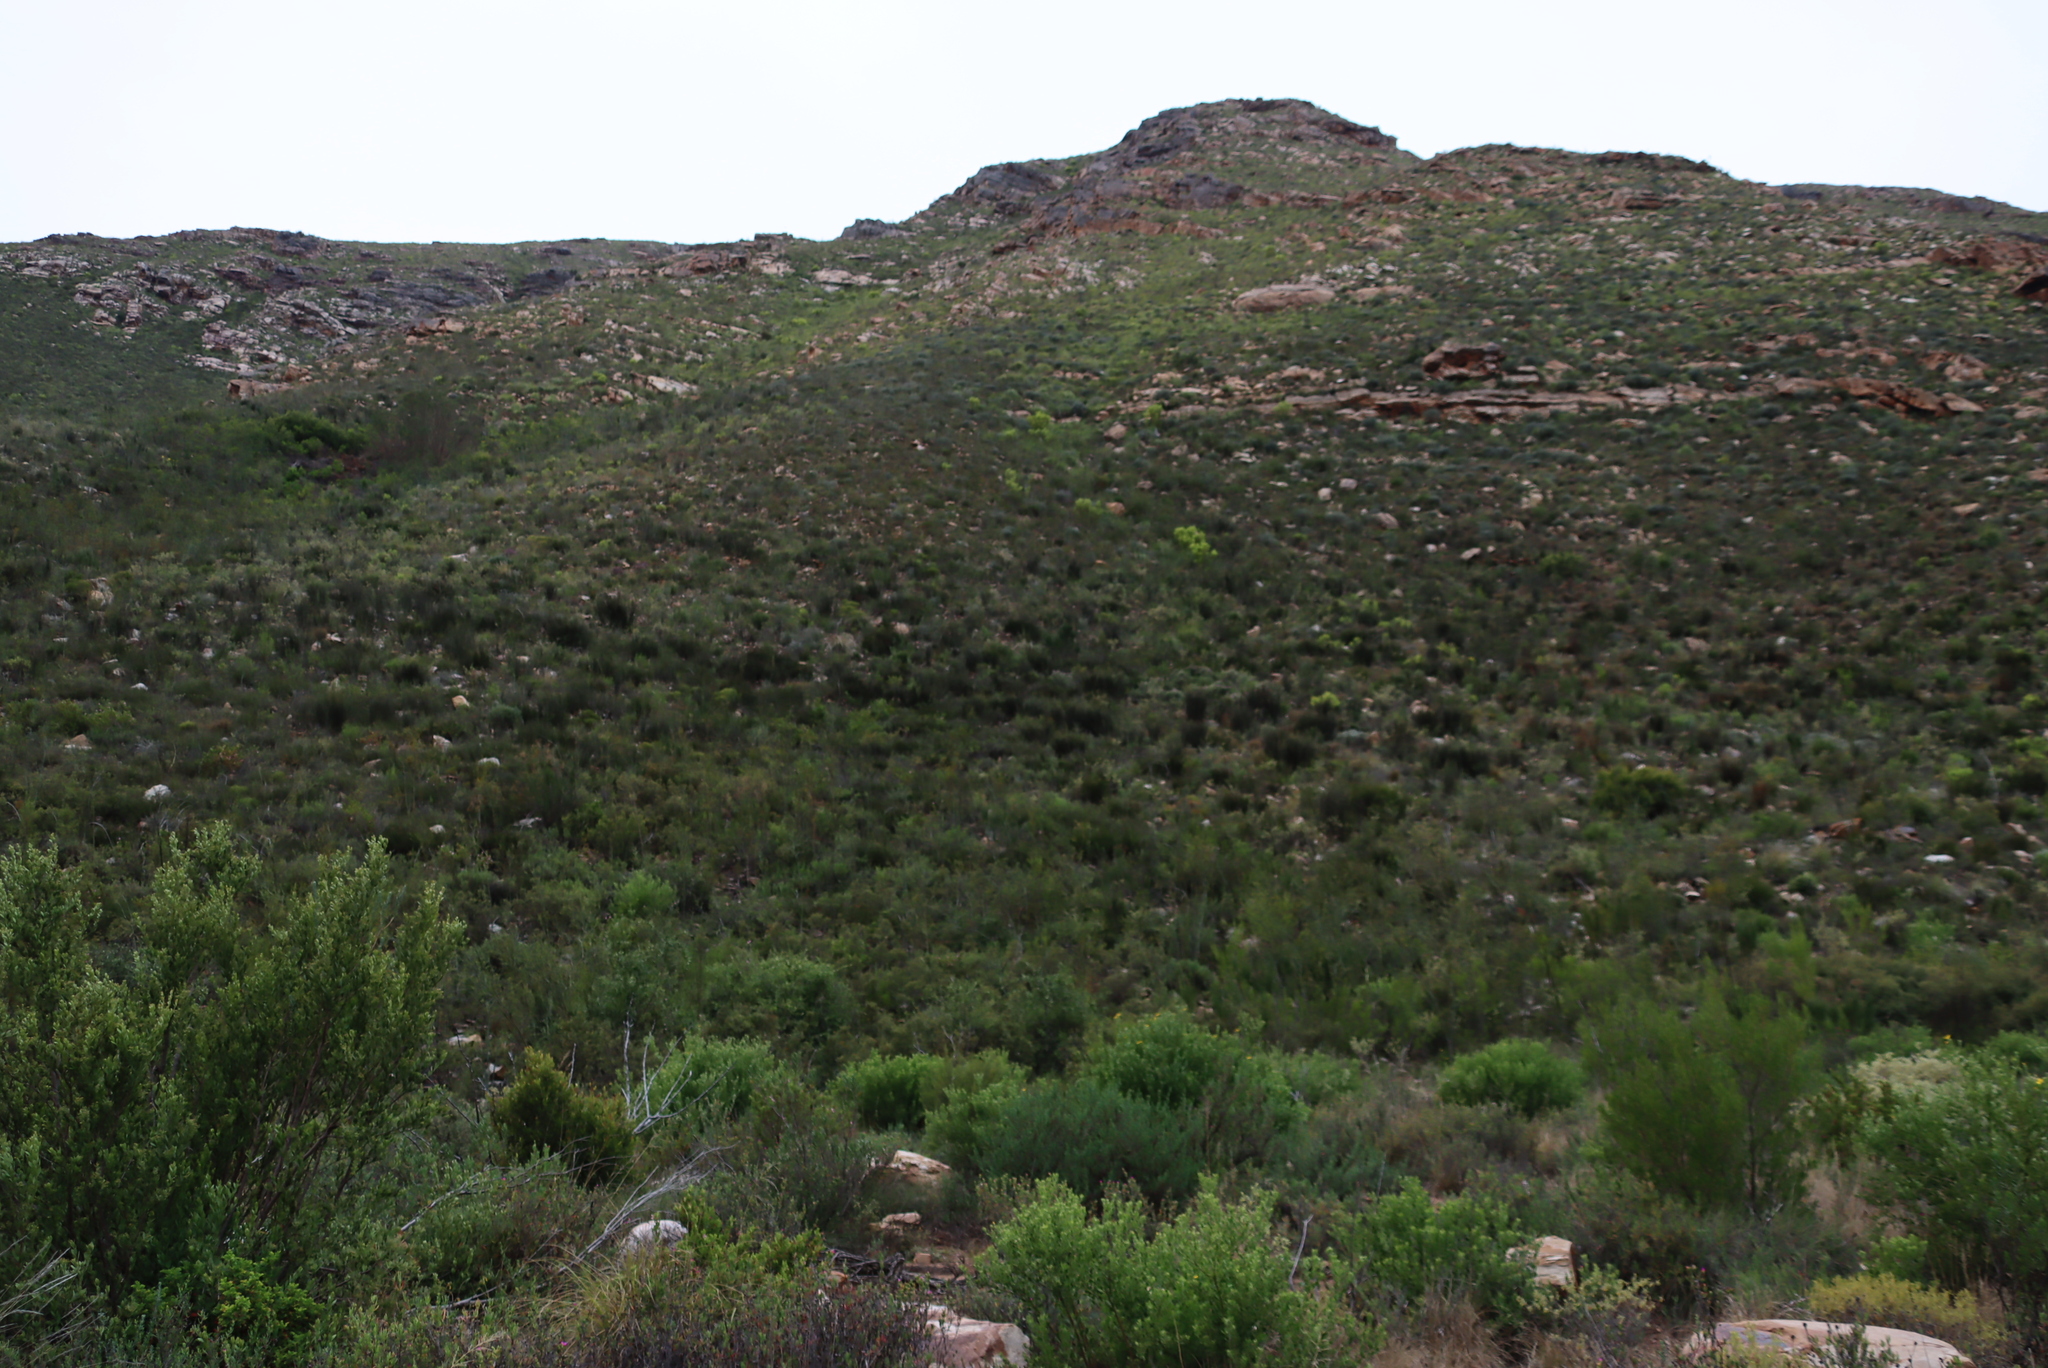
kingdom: Plantae
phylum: Tracheophyta
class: Magnoliopsida
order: Proteales
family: Proteaceae
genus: Leucadendron
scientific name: Leucadendron salignum
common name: Common sunshine conebush
